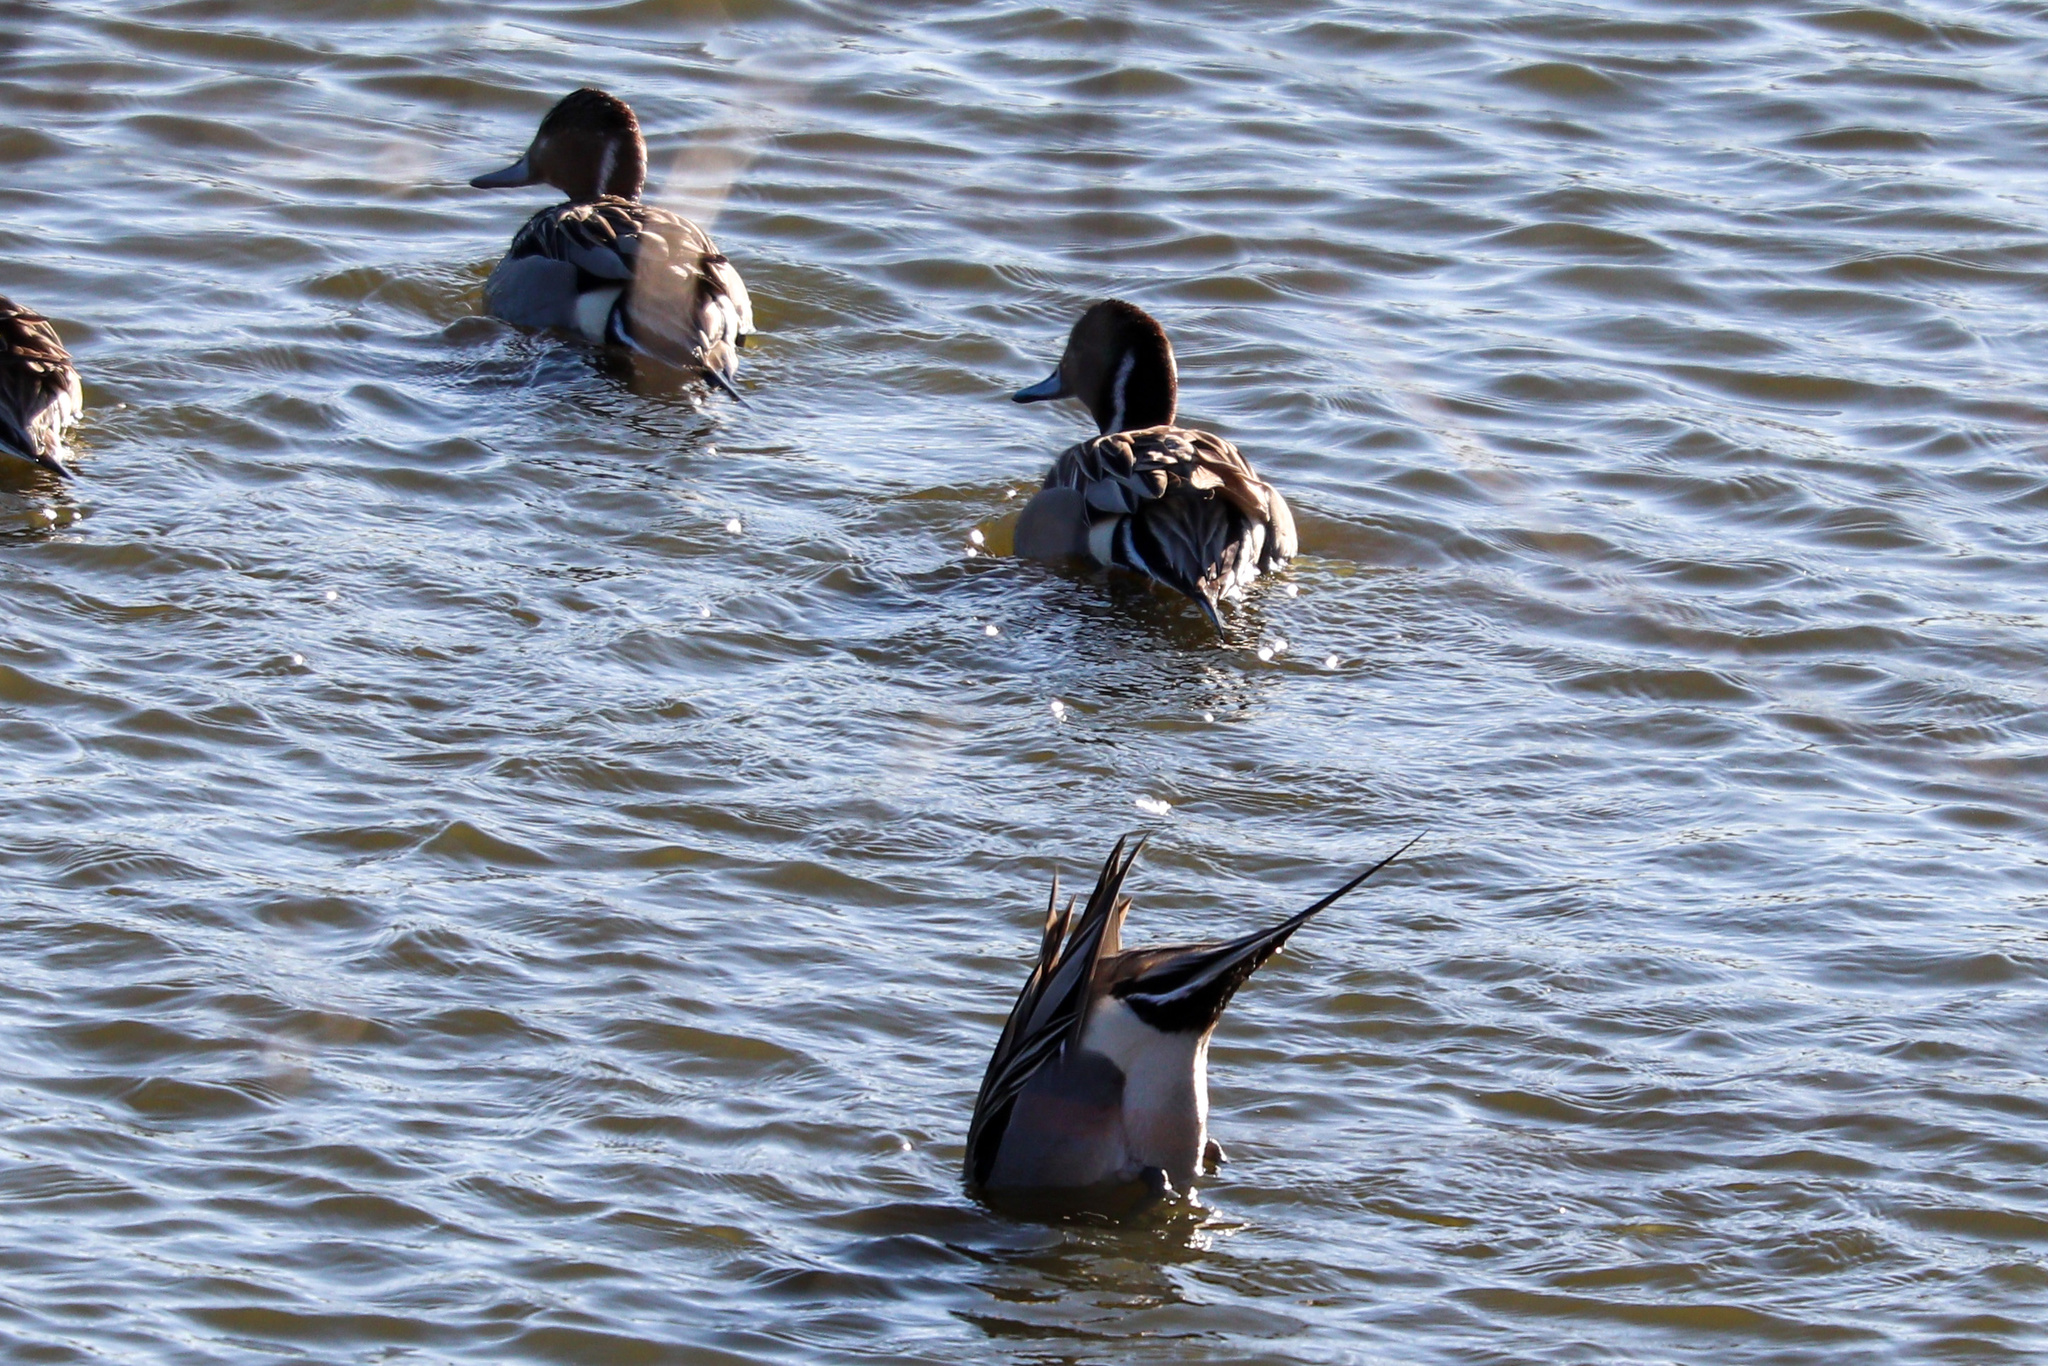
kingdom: Animalia
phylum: Chordata
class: Aves
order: Anseriformes
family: Anatidae
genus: Anas
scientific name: Anas acuta
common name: Northern pintail
